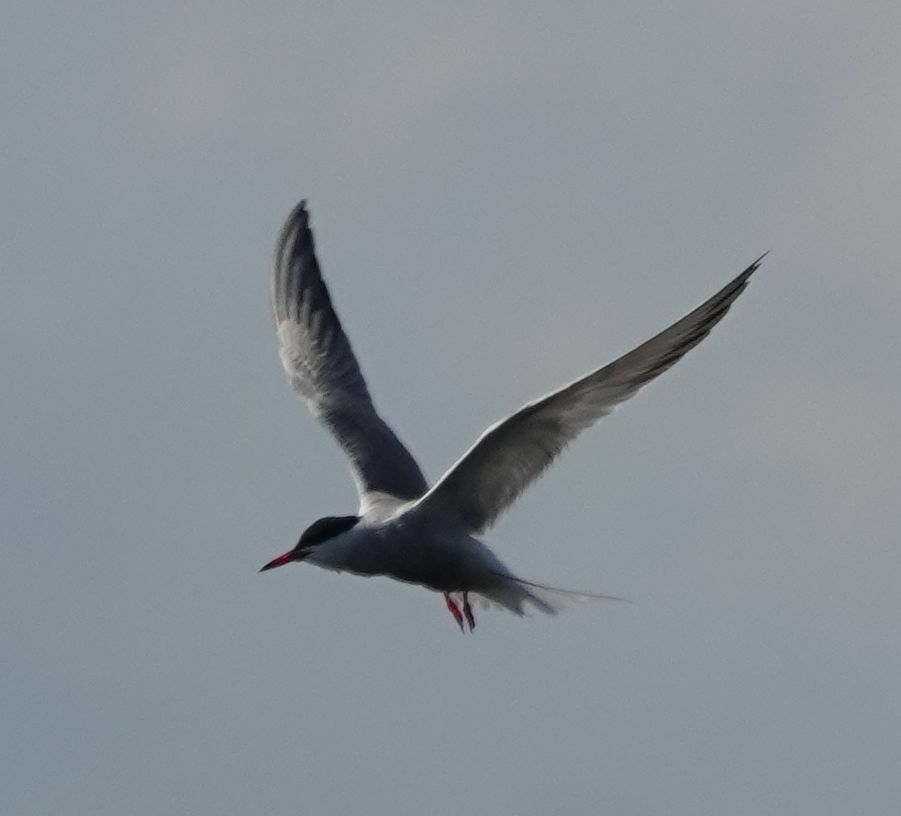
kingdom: Animalia
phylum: Chordata
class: Aves
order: Charadriiformes
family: Laridae
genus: Sterna
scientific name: Sterna hirundo
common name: Common tern
